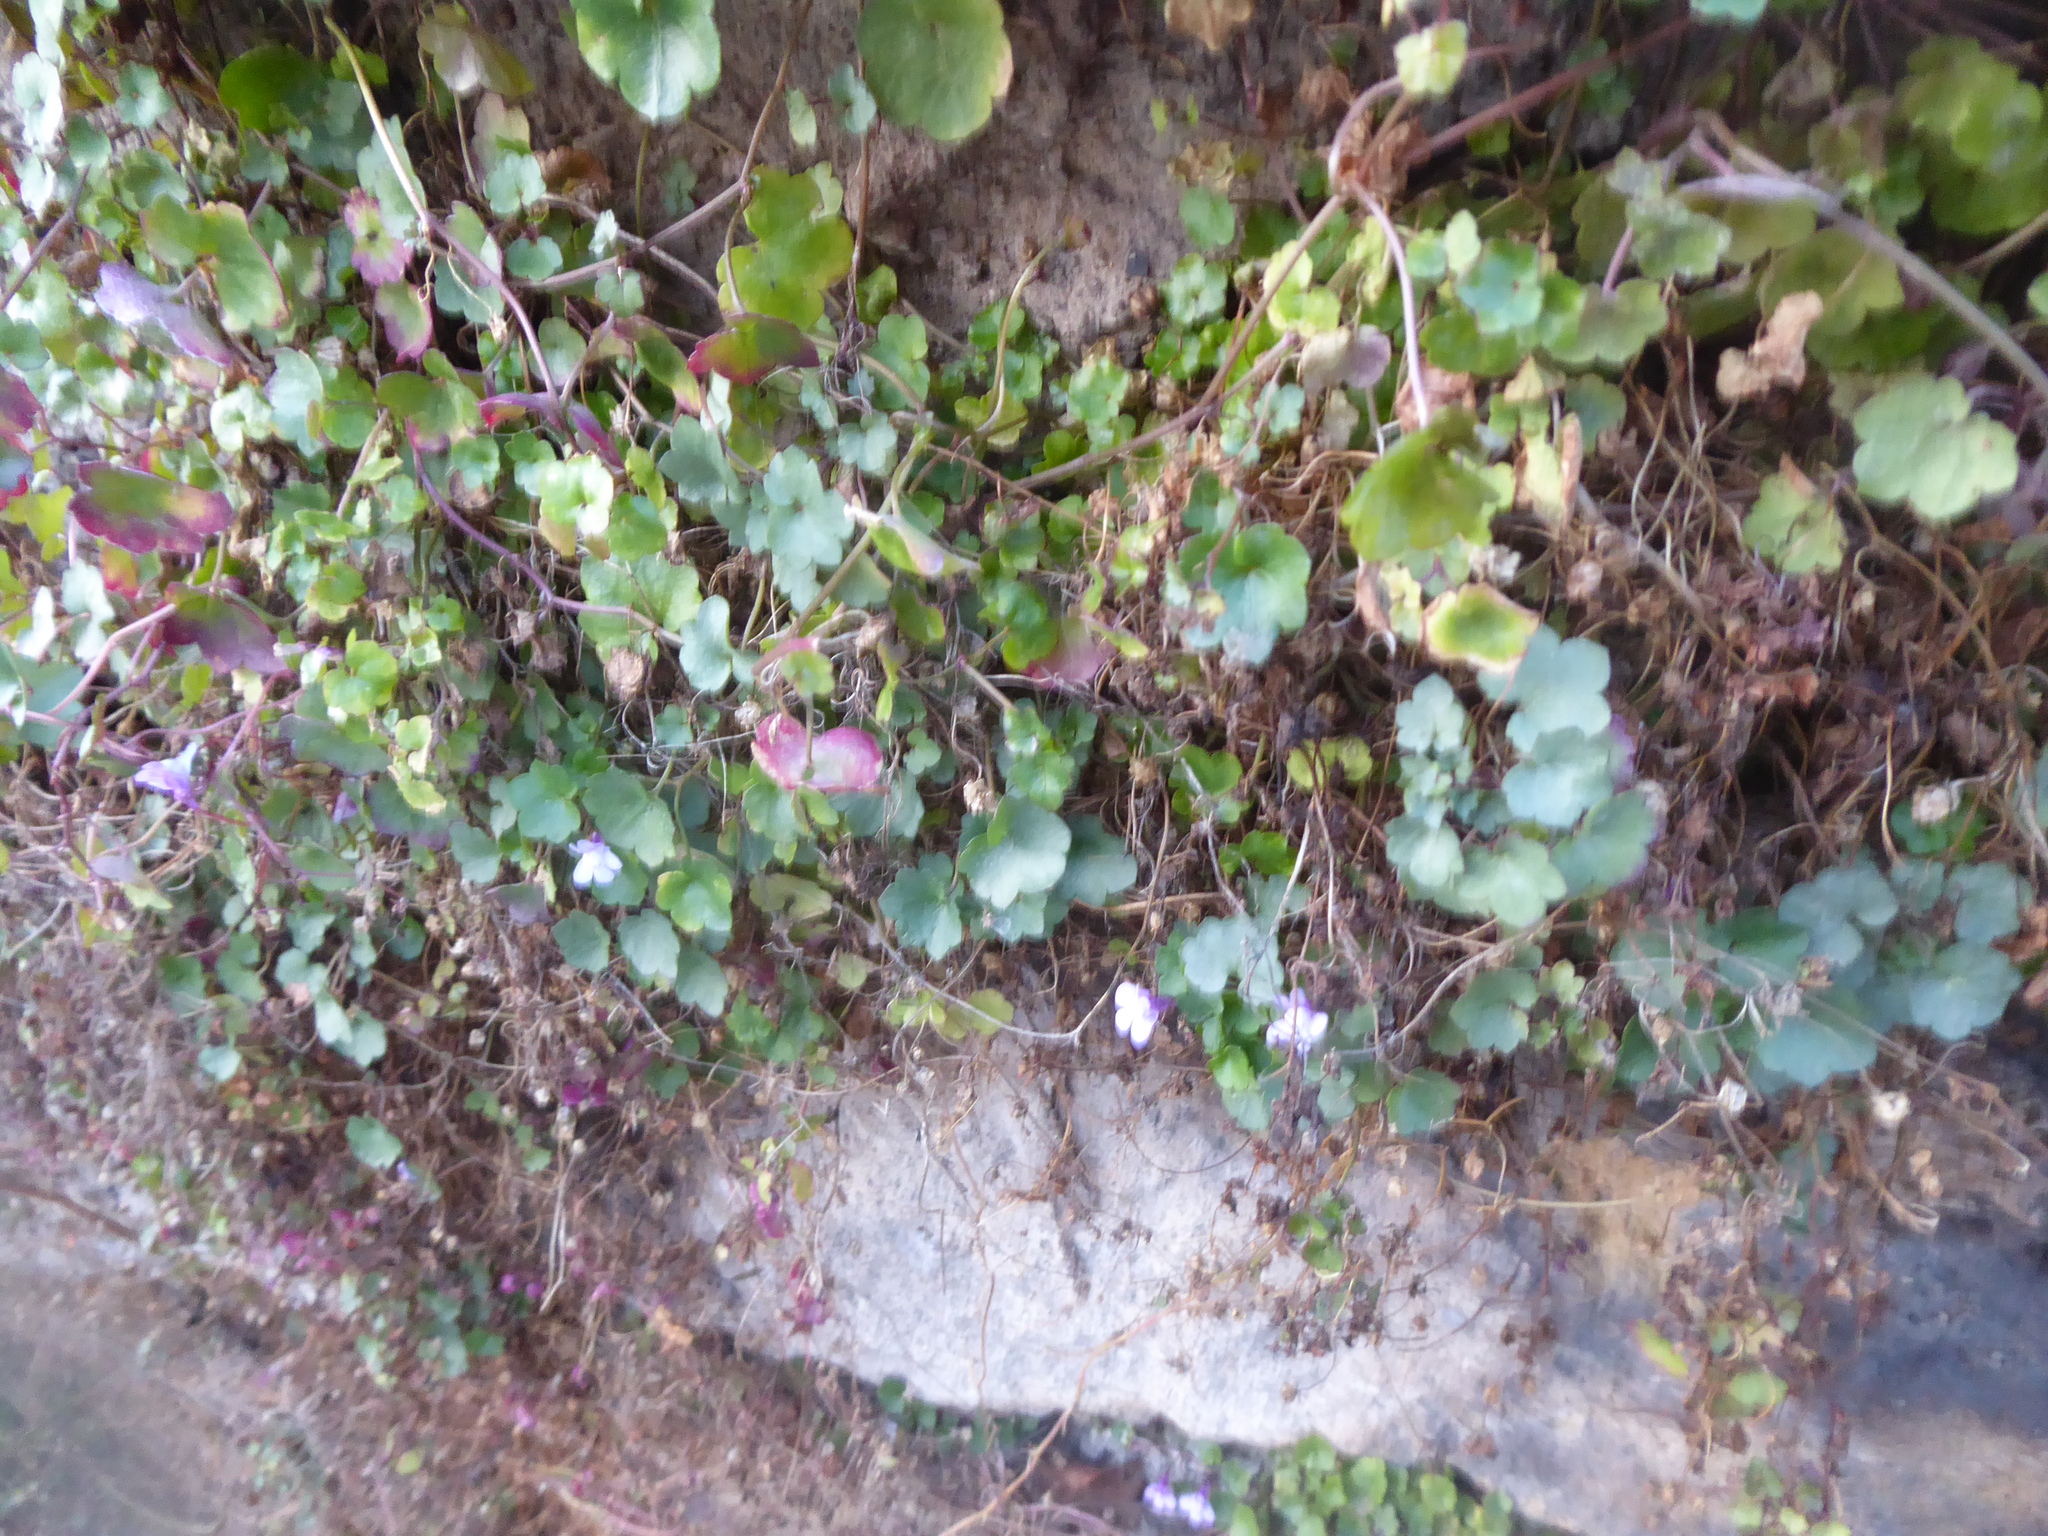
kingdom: Plantae
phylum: Tracheophyta
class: Magnoliopsida
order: Lamiales
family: Plantaginaceae
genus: Cymbalaria
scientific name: Cymbalaria muralis
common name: Ivy-leaved toadflax
